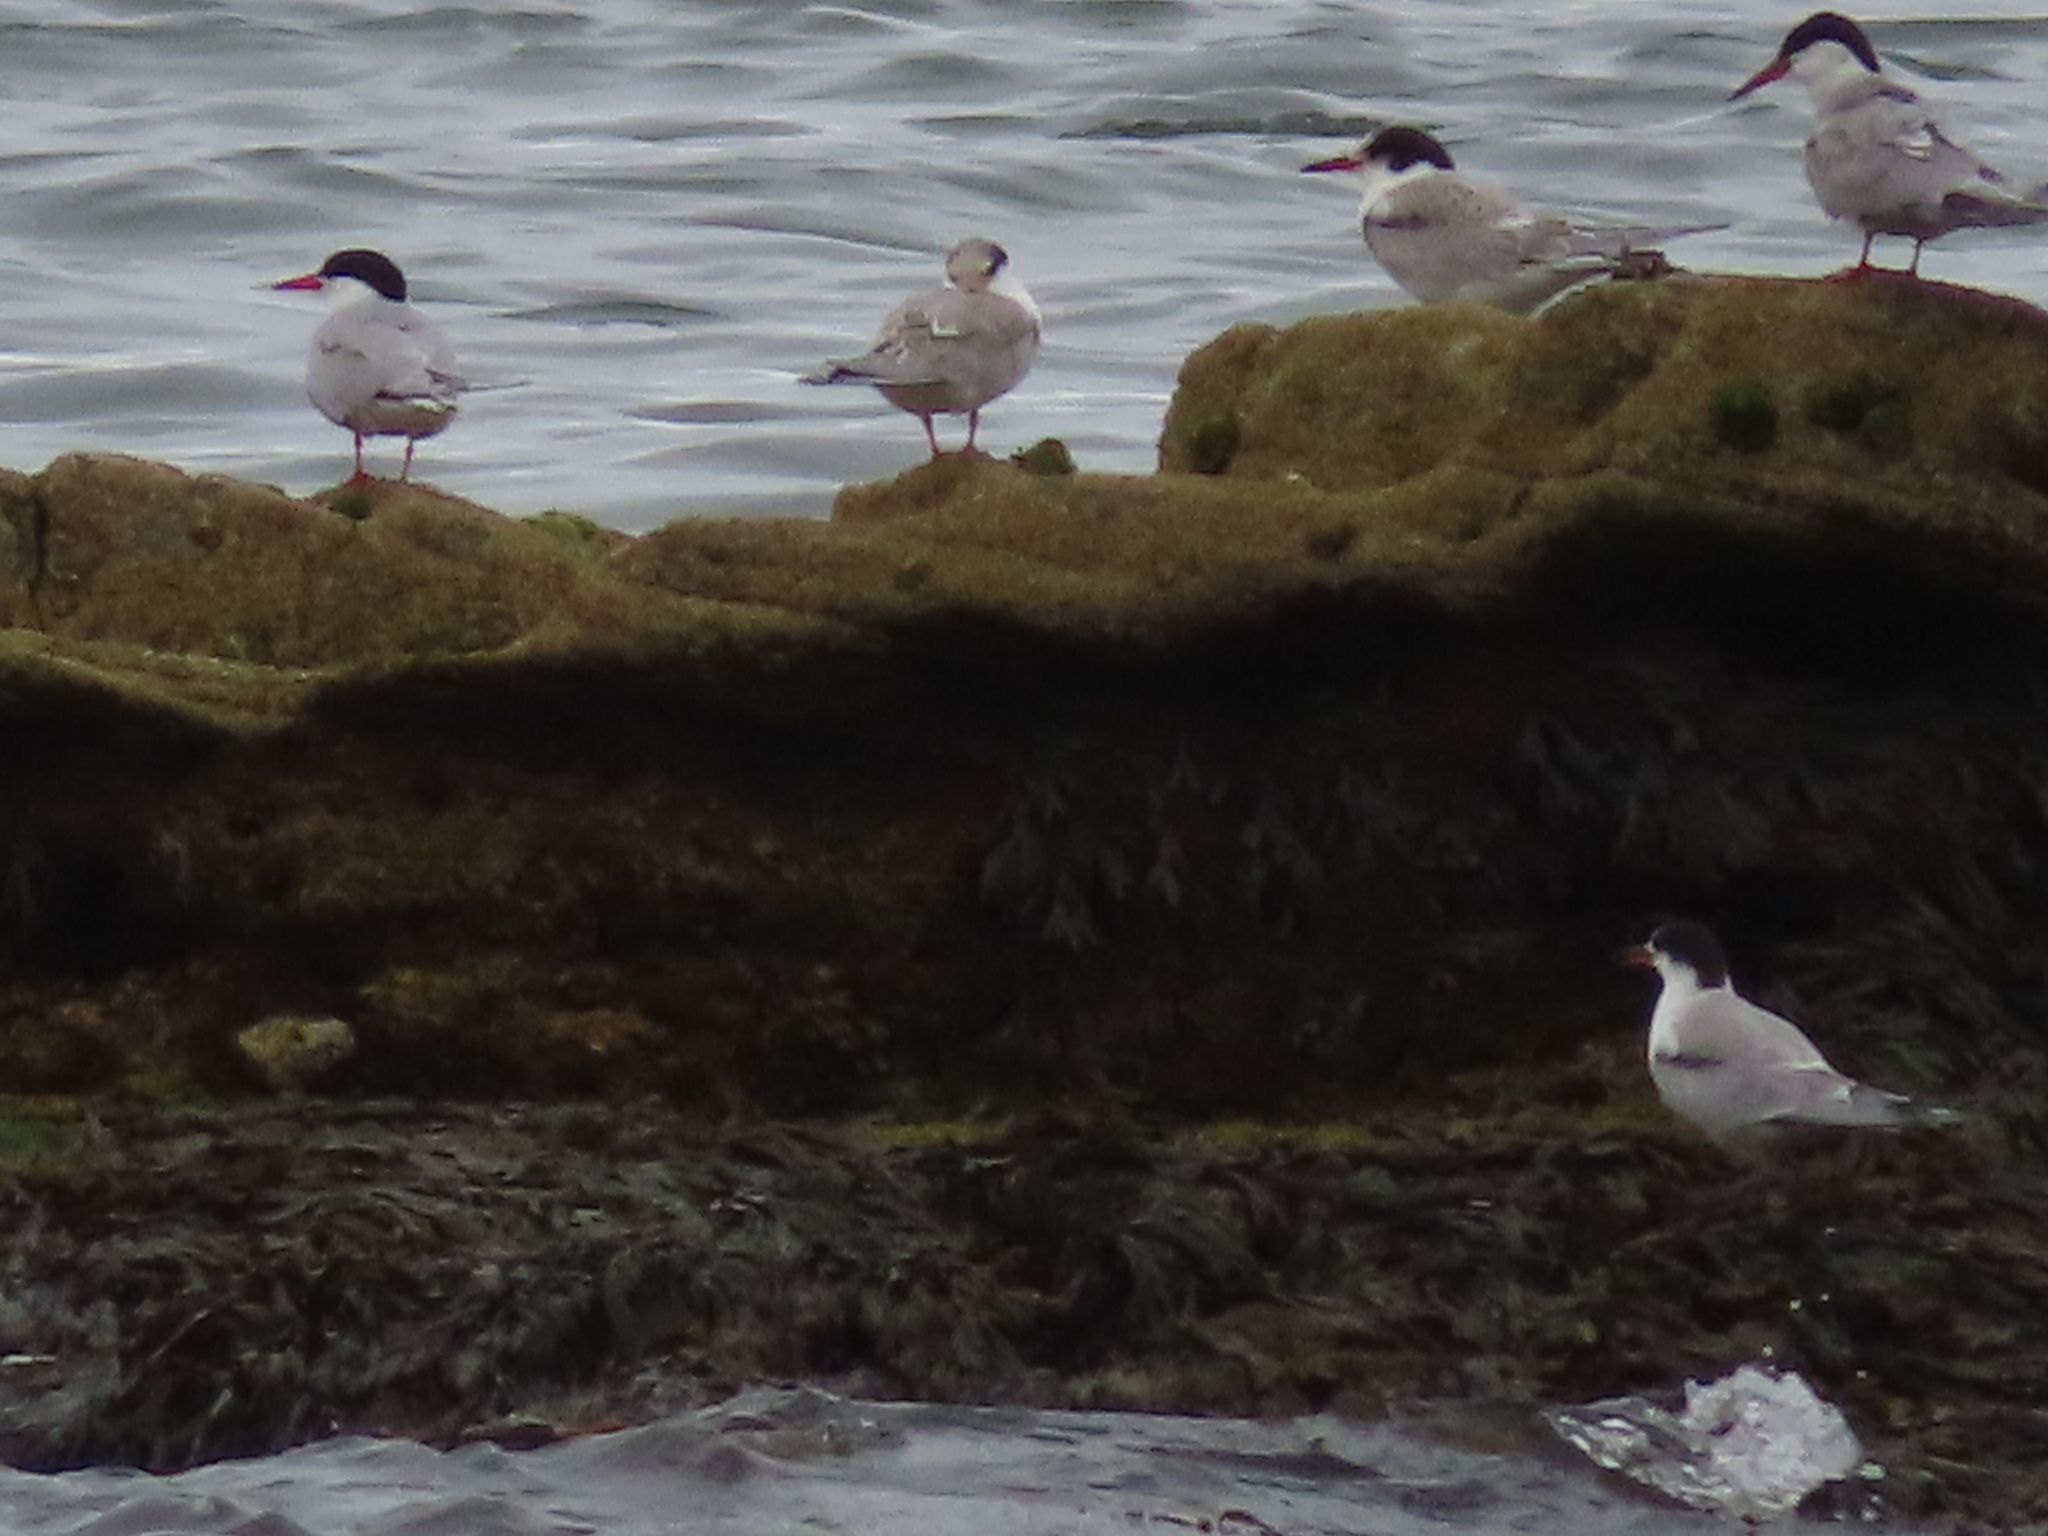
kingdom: Animalia
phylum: Chordata
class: Aves
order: Charadriiformes
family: Laridae
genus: Sterna
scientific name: Sterna hirundo
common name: Common tern
